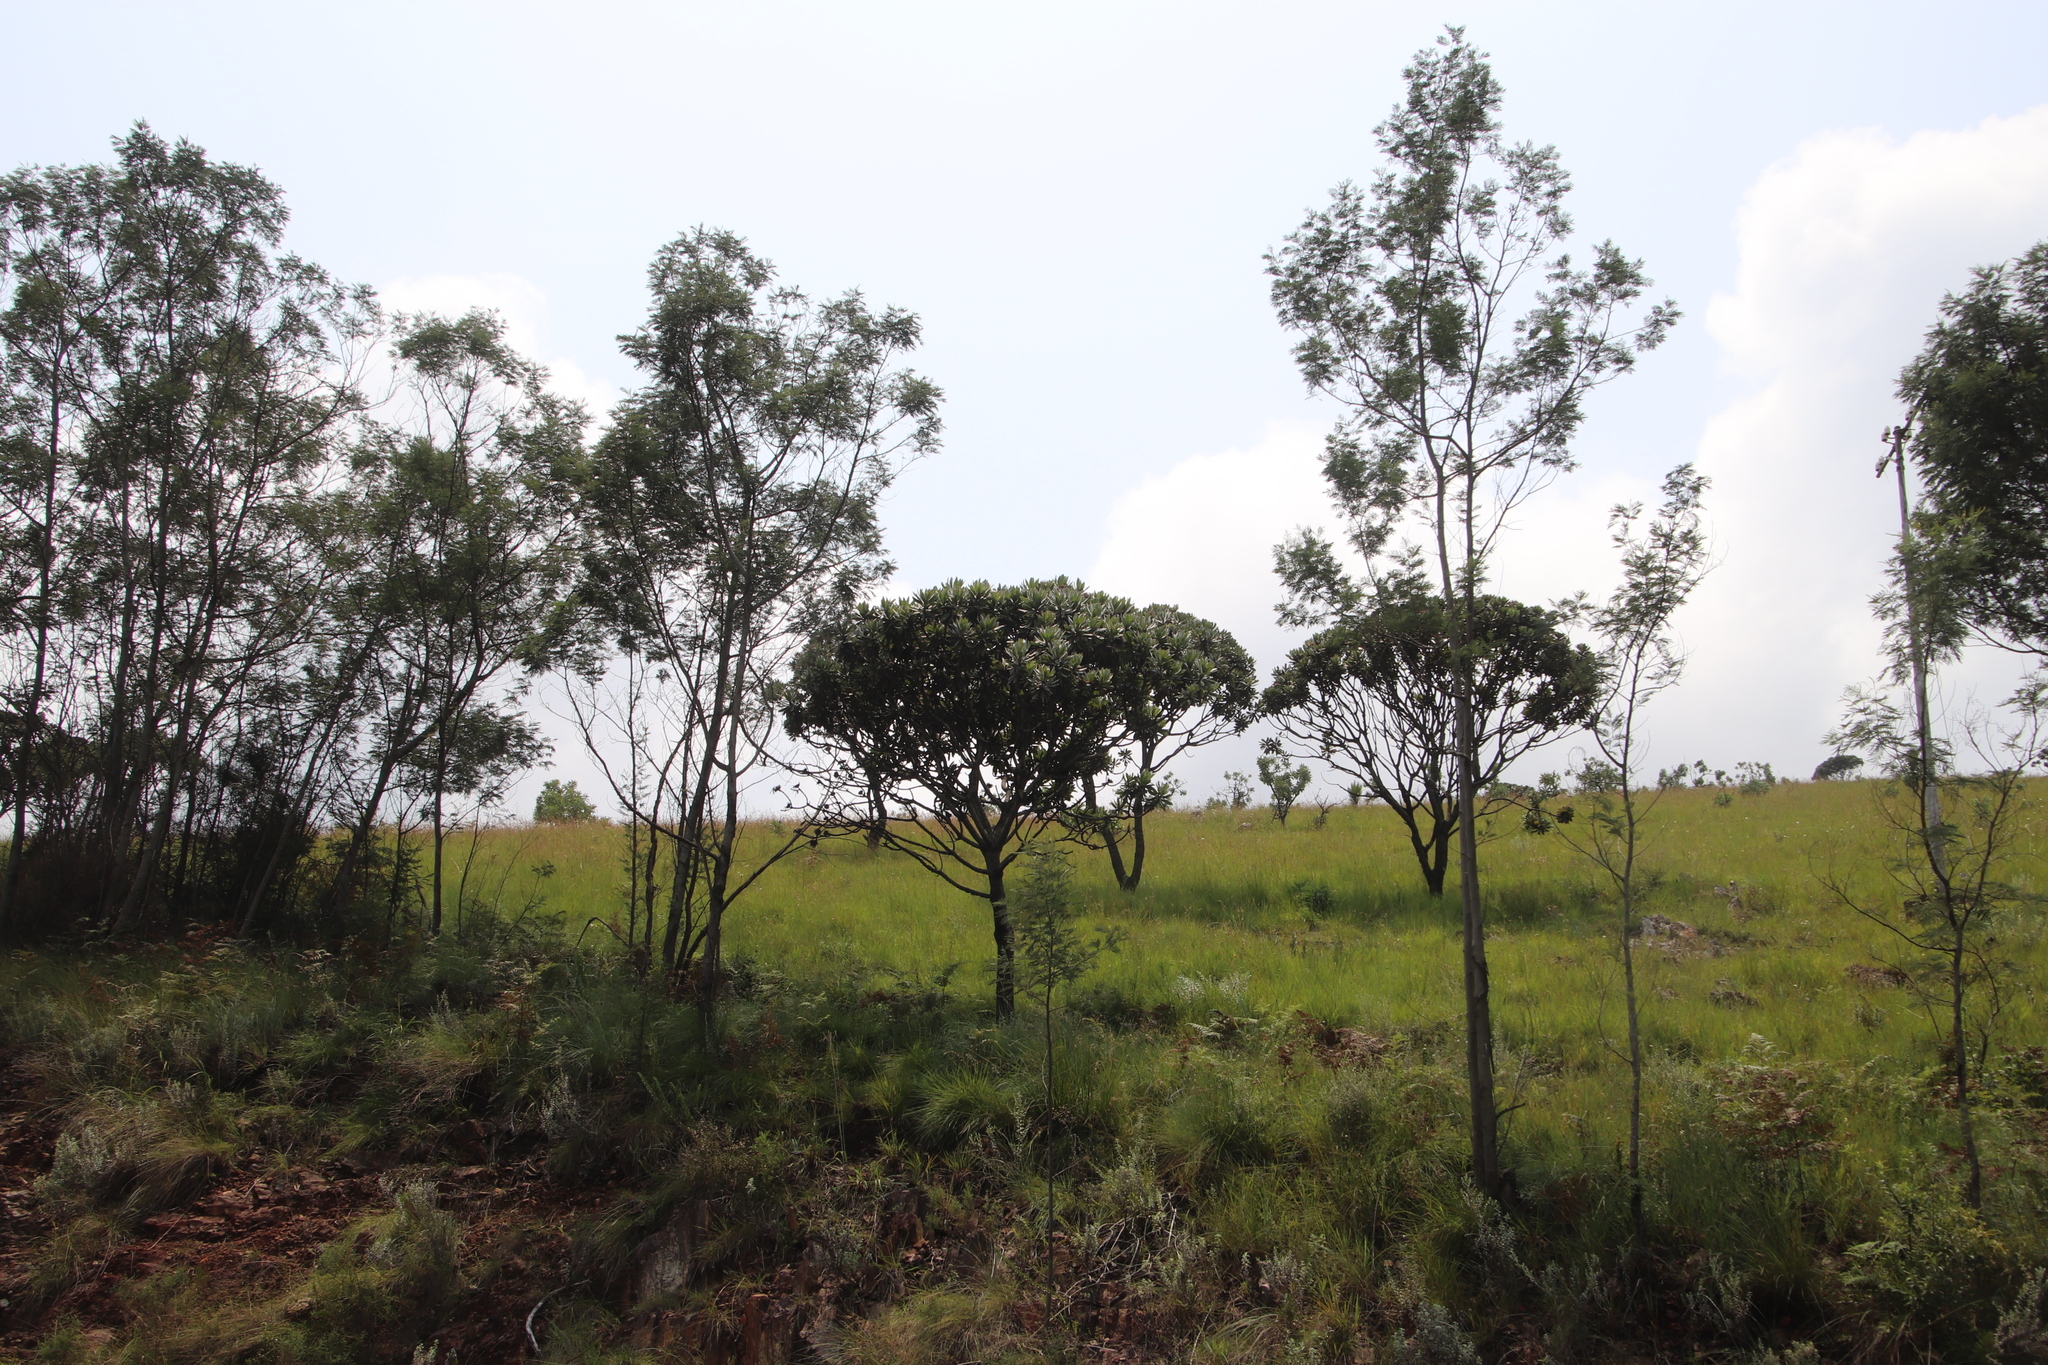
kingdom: Plantae
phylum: Tracheophyta
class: Magnoliopsida
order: Proteales
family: Proteaceae
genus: Protea
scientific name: Protea roupelliae
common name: Silver sugarbush
